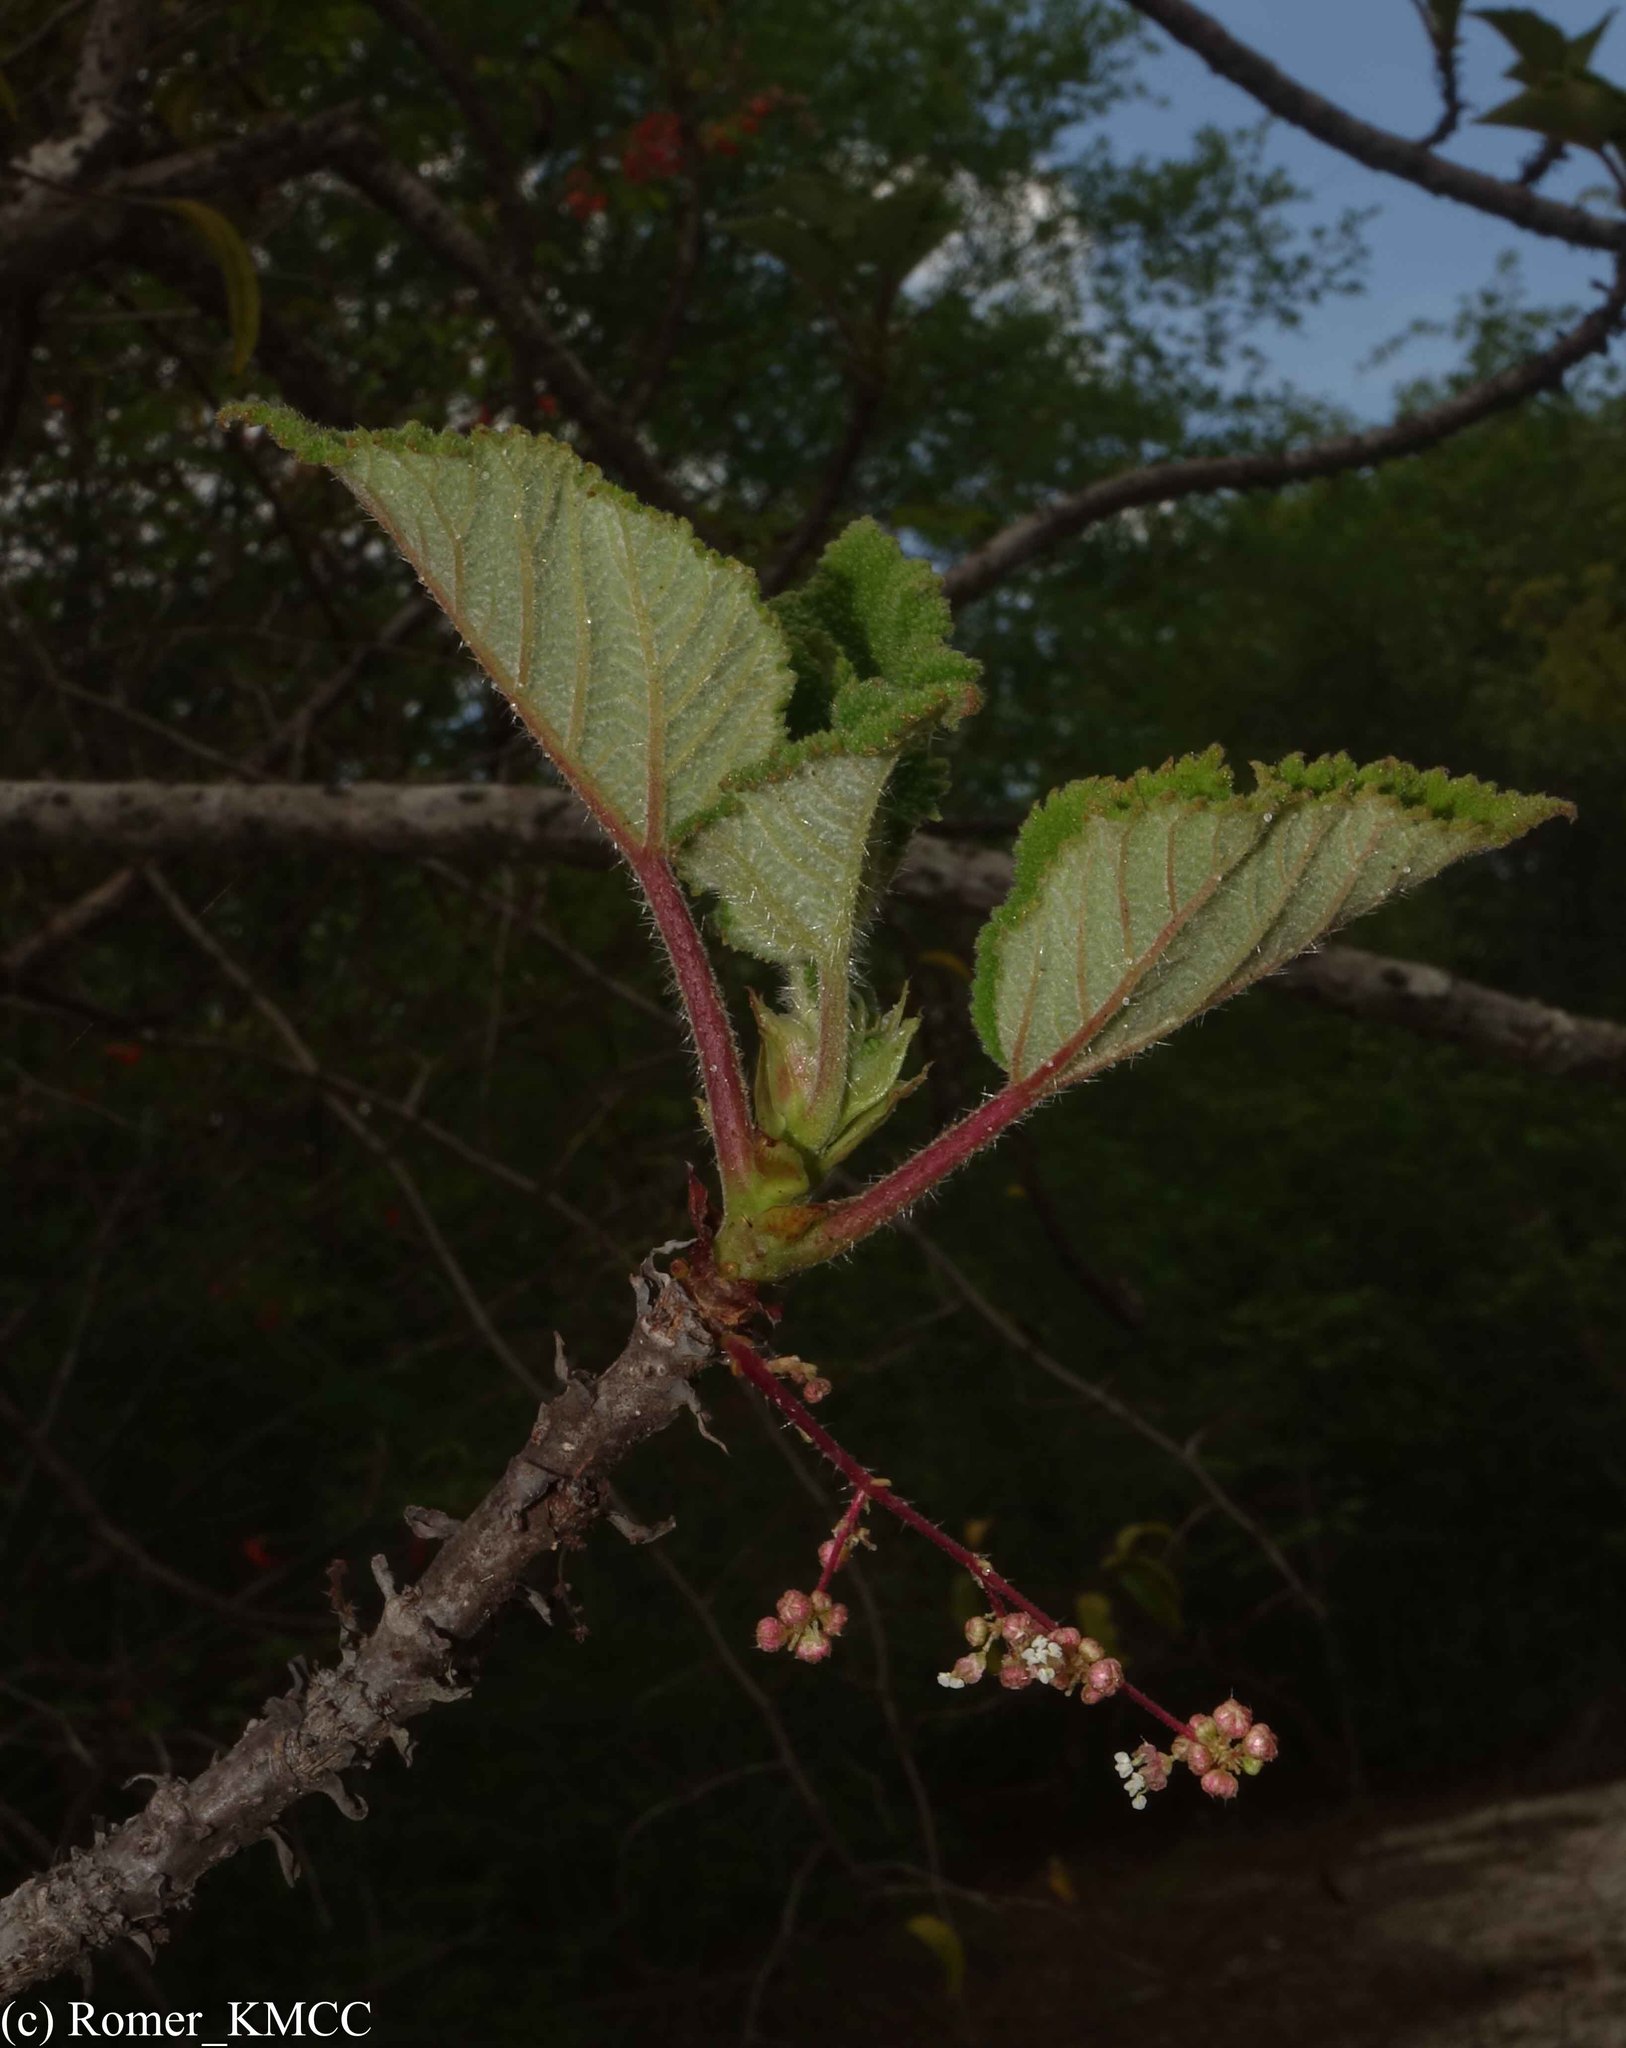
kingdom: Plantae
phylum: Tracheophyta
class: Magnoliopsida
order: Rosales
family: Urticaceae
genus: Obetia
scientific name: Obetia radula
